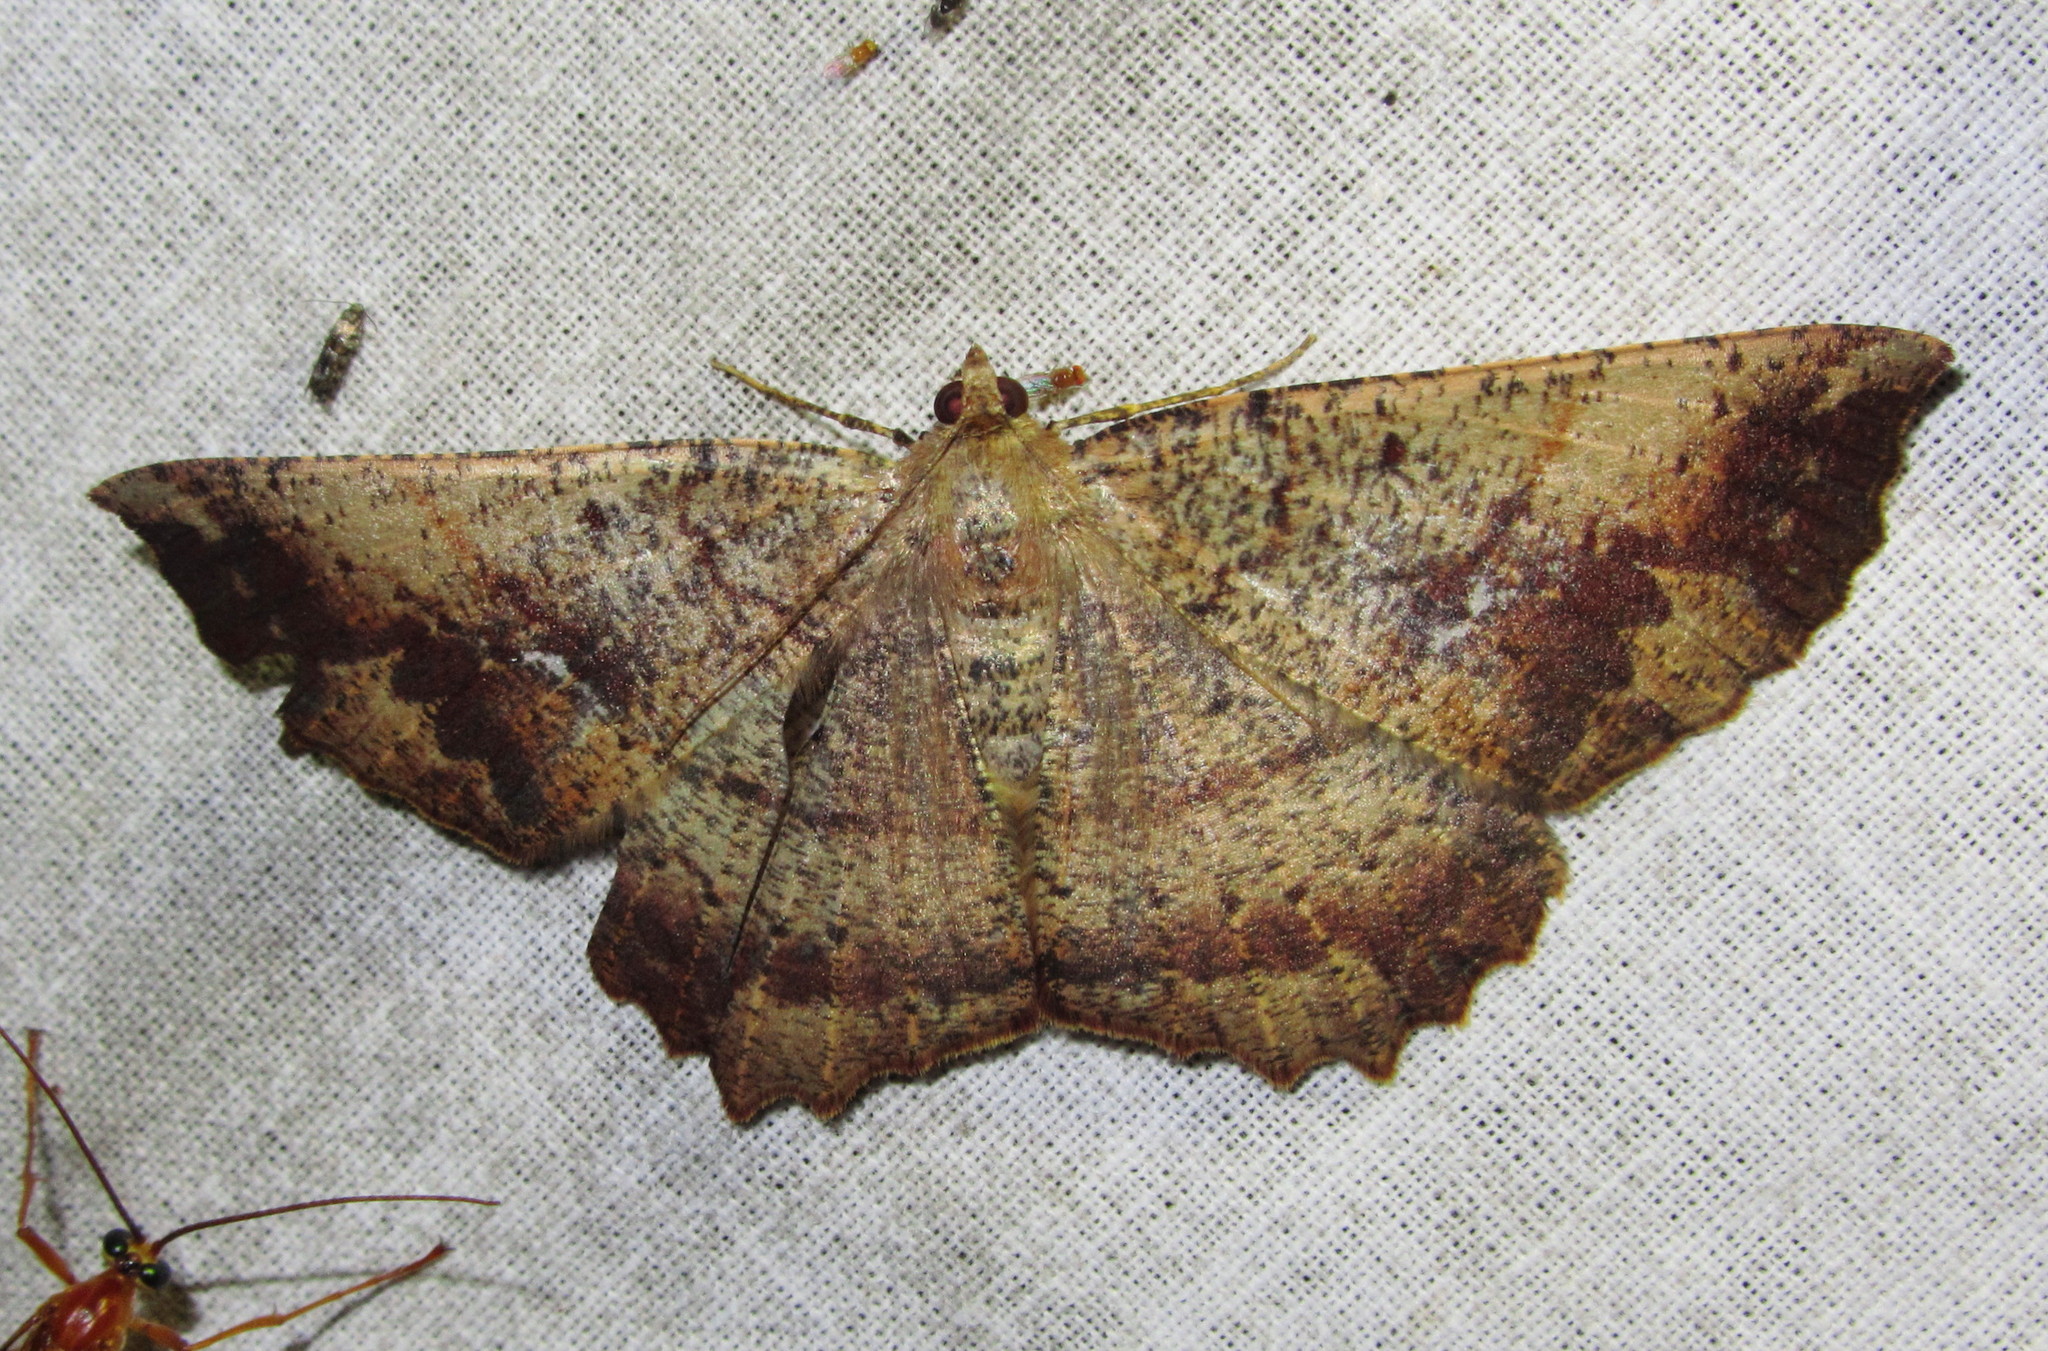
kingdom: Animalia
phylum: Arthropoda
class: Insecta
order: Lepidoptera
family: Geometridae
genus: Xerodes
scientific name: Xerodes ypsaria
